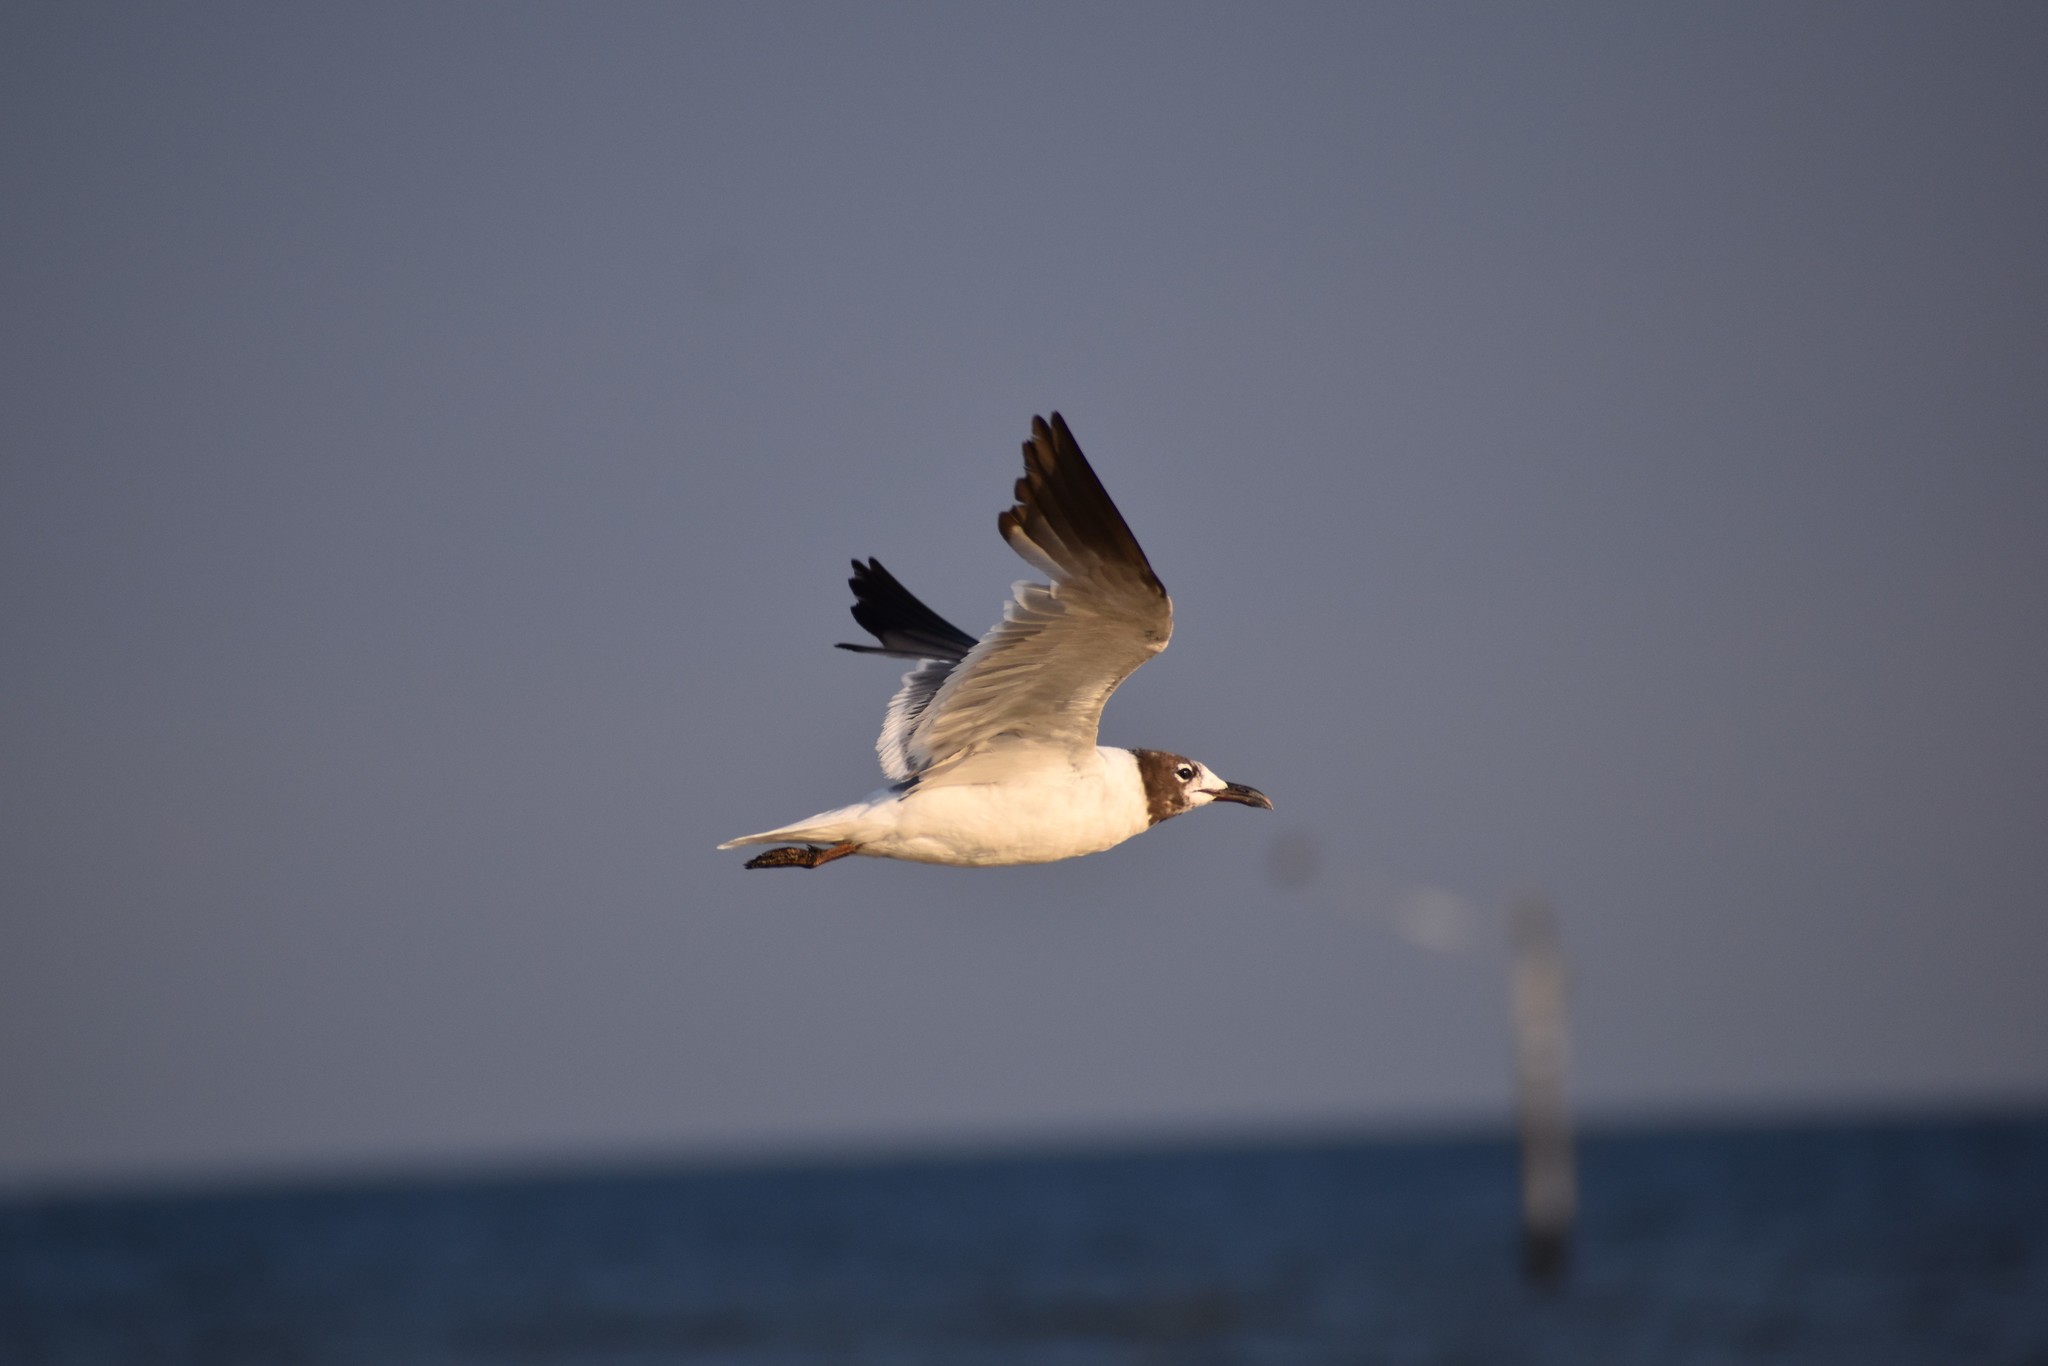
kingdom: Animalia
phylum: Chordata
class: Aves
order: Charadriiformes
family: Laridae
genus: Leucophaeus
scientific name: Leucophaeus atricilla
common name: Laughing gull
